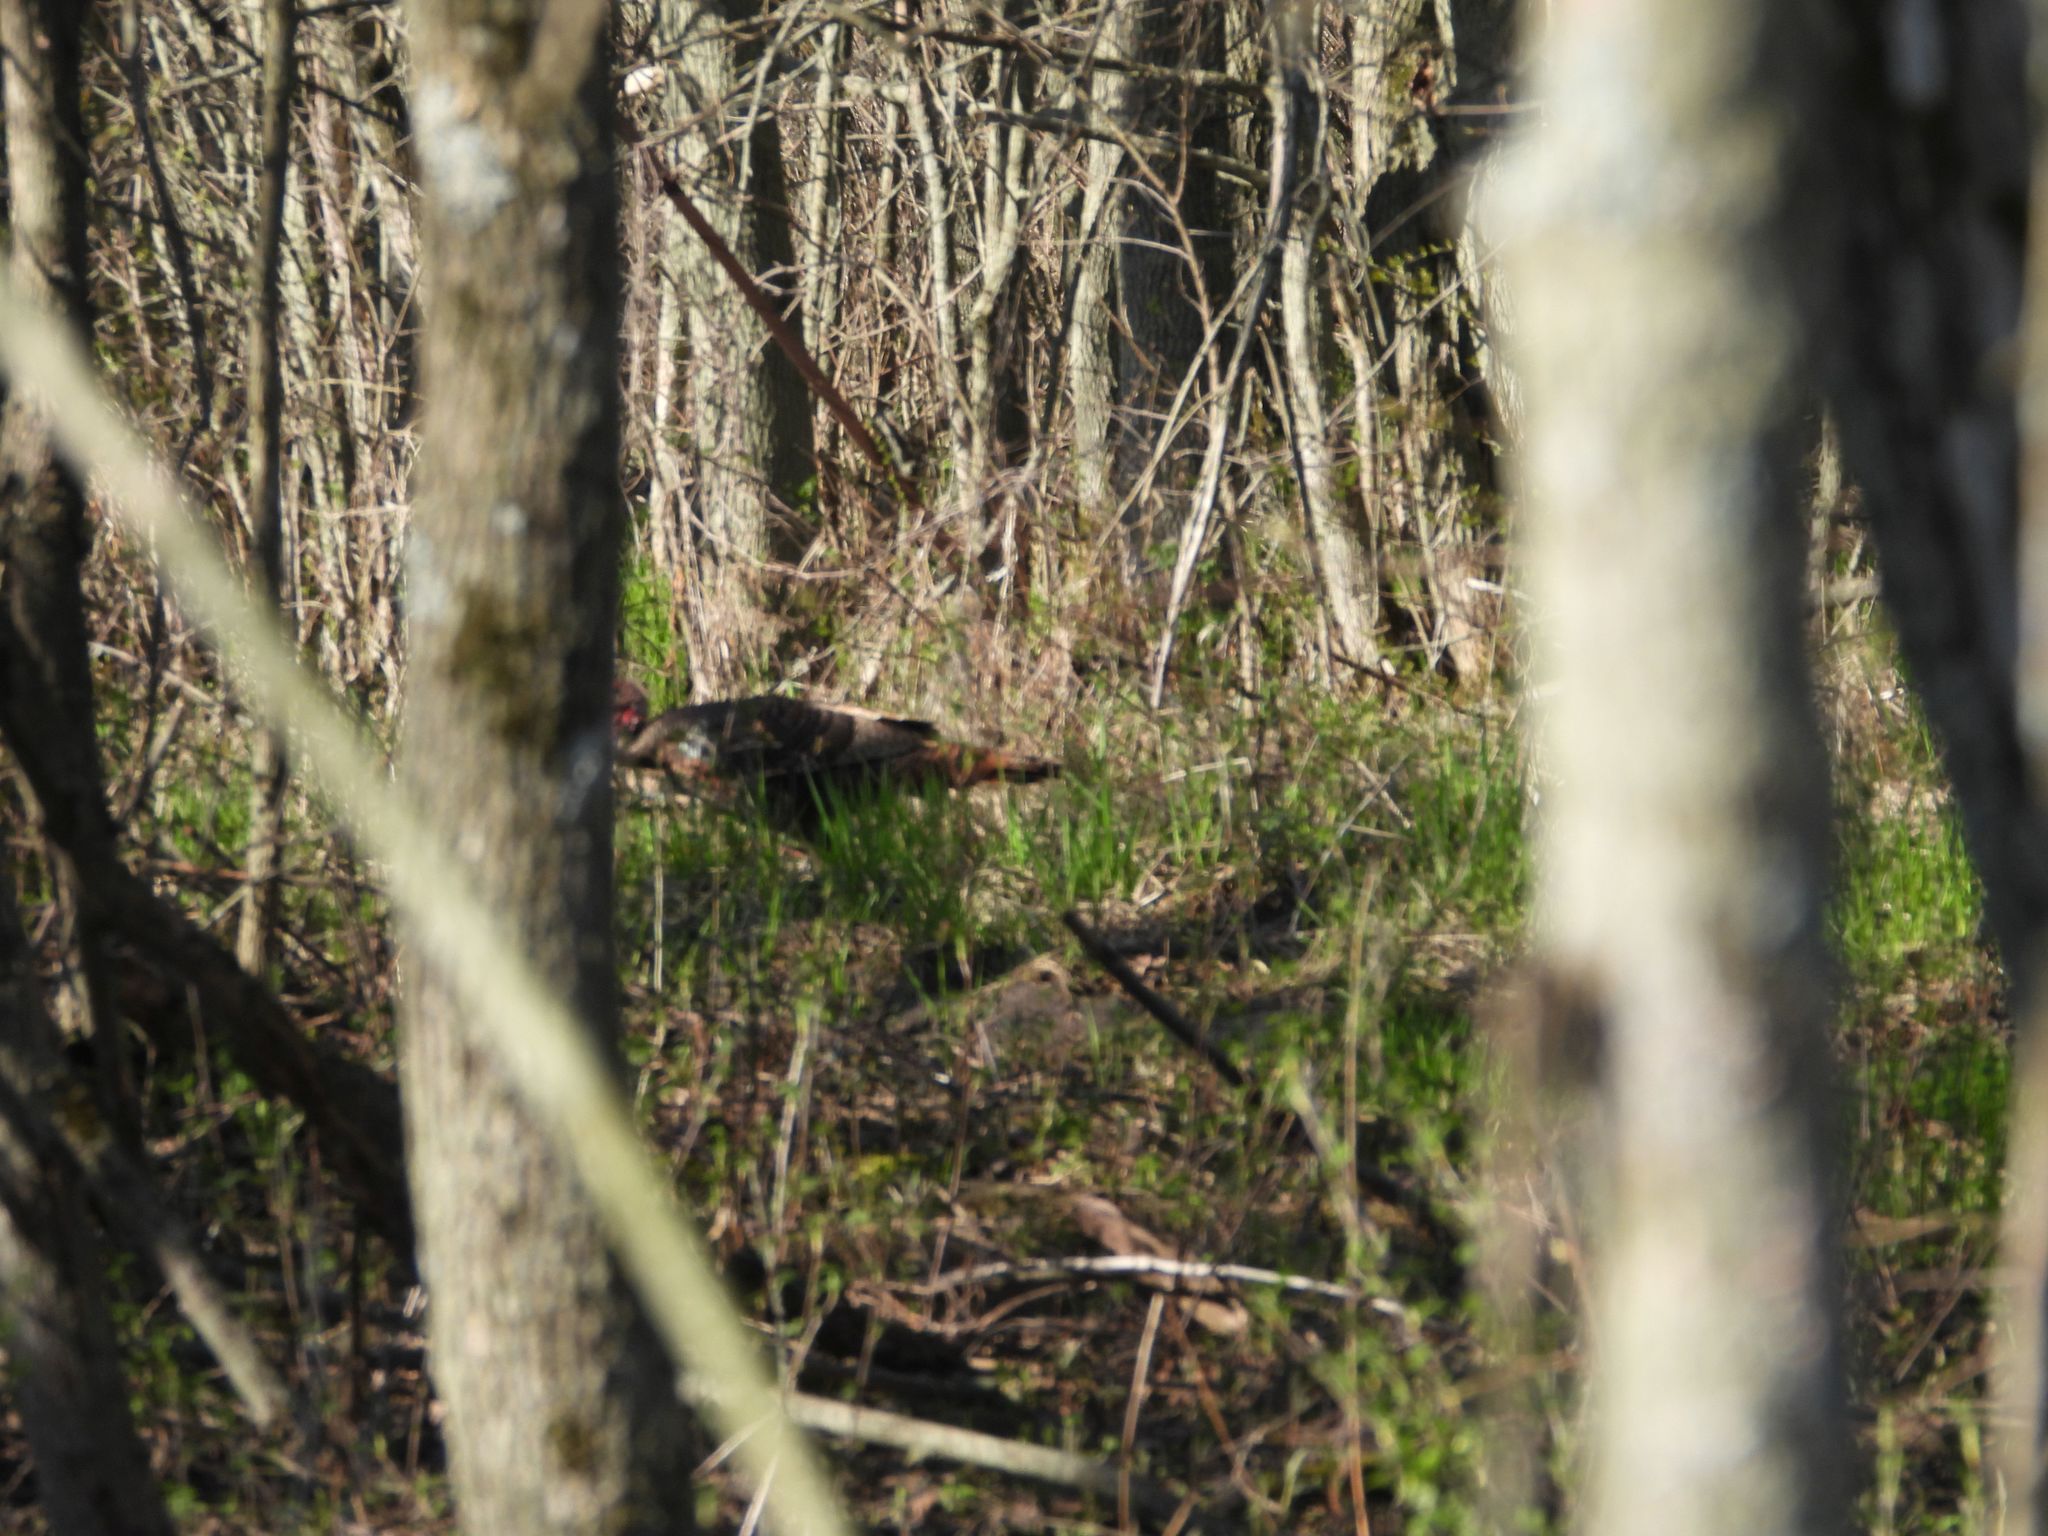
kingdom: Animalia
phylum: Chordata
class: Aves
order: Galliformes
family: Phasianidae
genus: Meleagris
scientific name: Meleagris gallopavo
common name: Wild turkey
